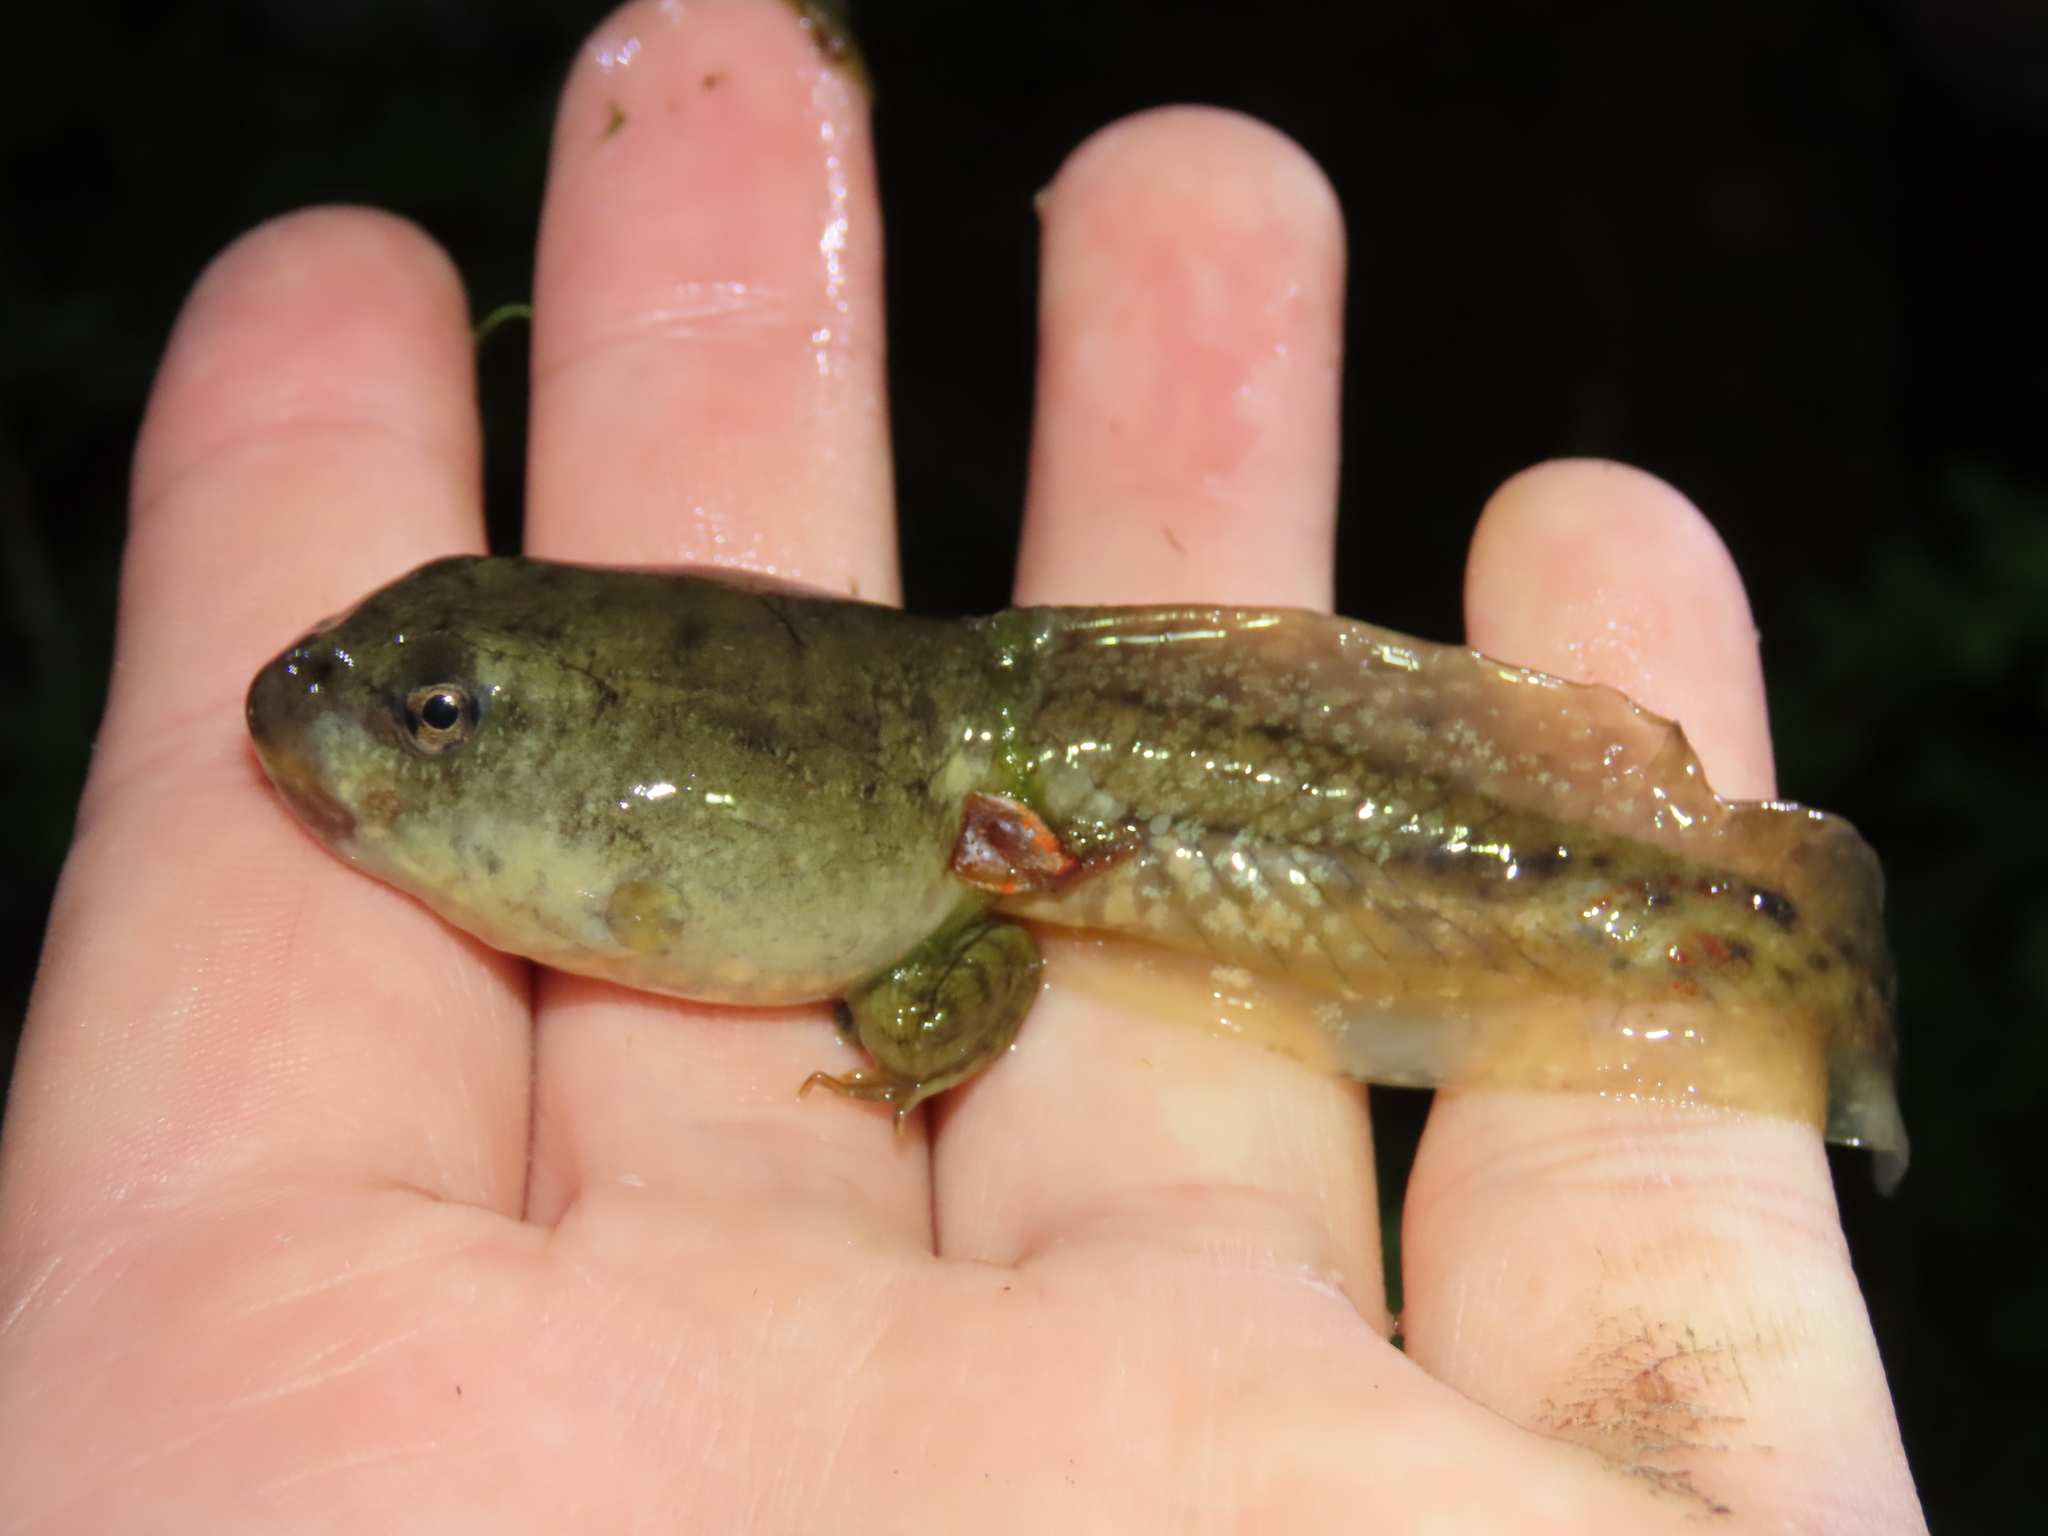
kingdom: Animalia
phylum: Chordata
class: Amphibia
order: Anura
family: Ranidae
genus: Lithobates
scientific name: Lithobates catesbeianus
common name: American bullfrog
